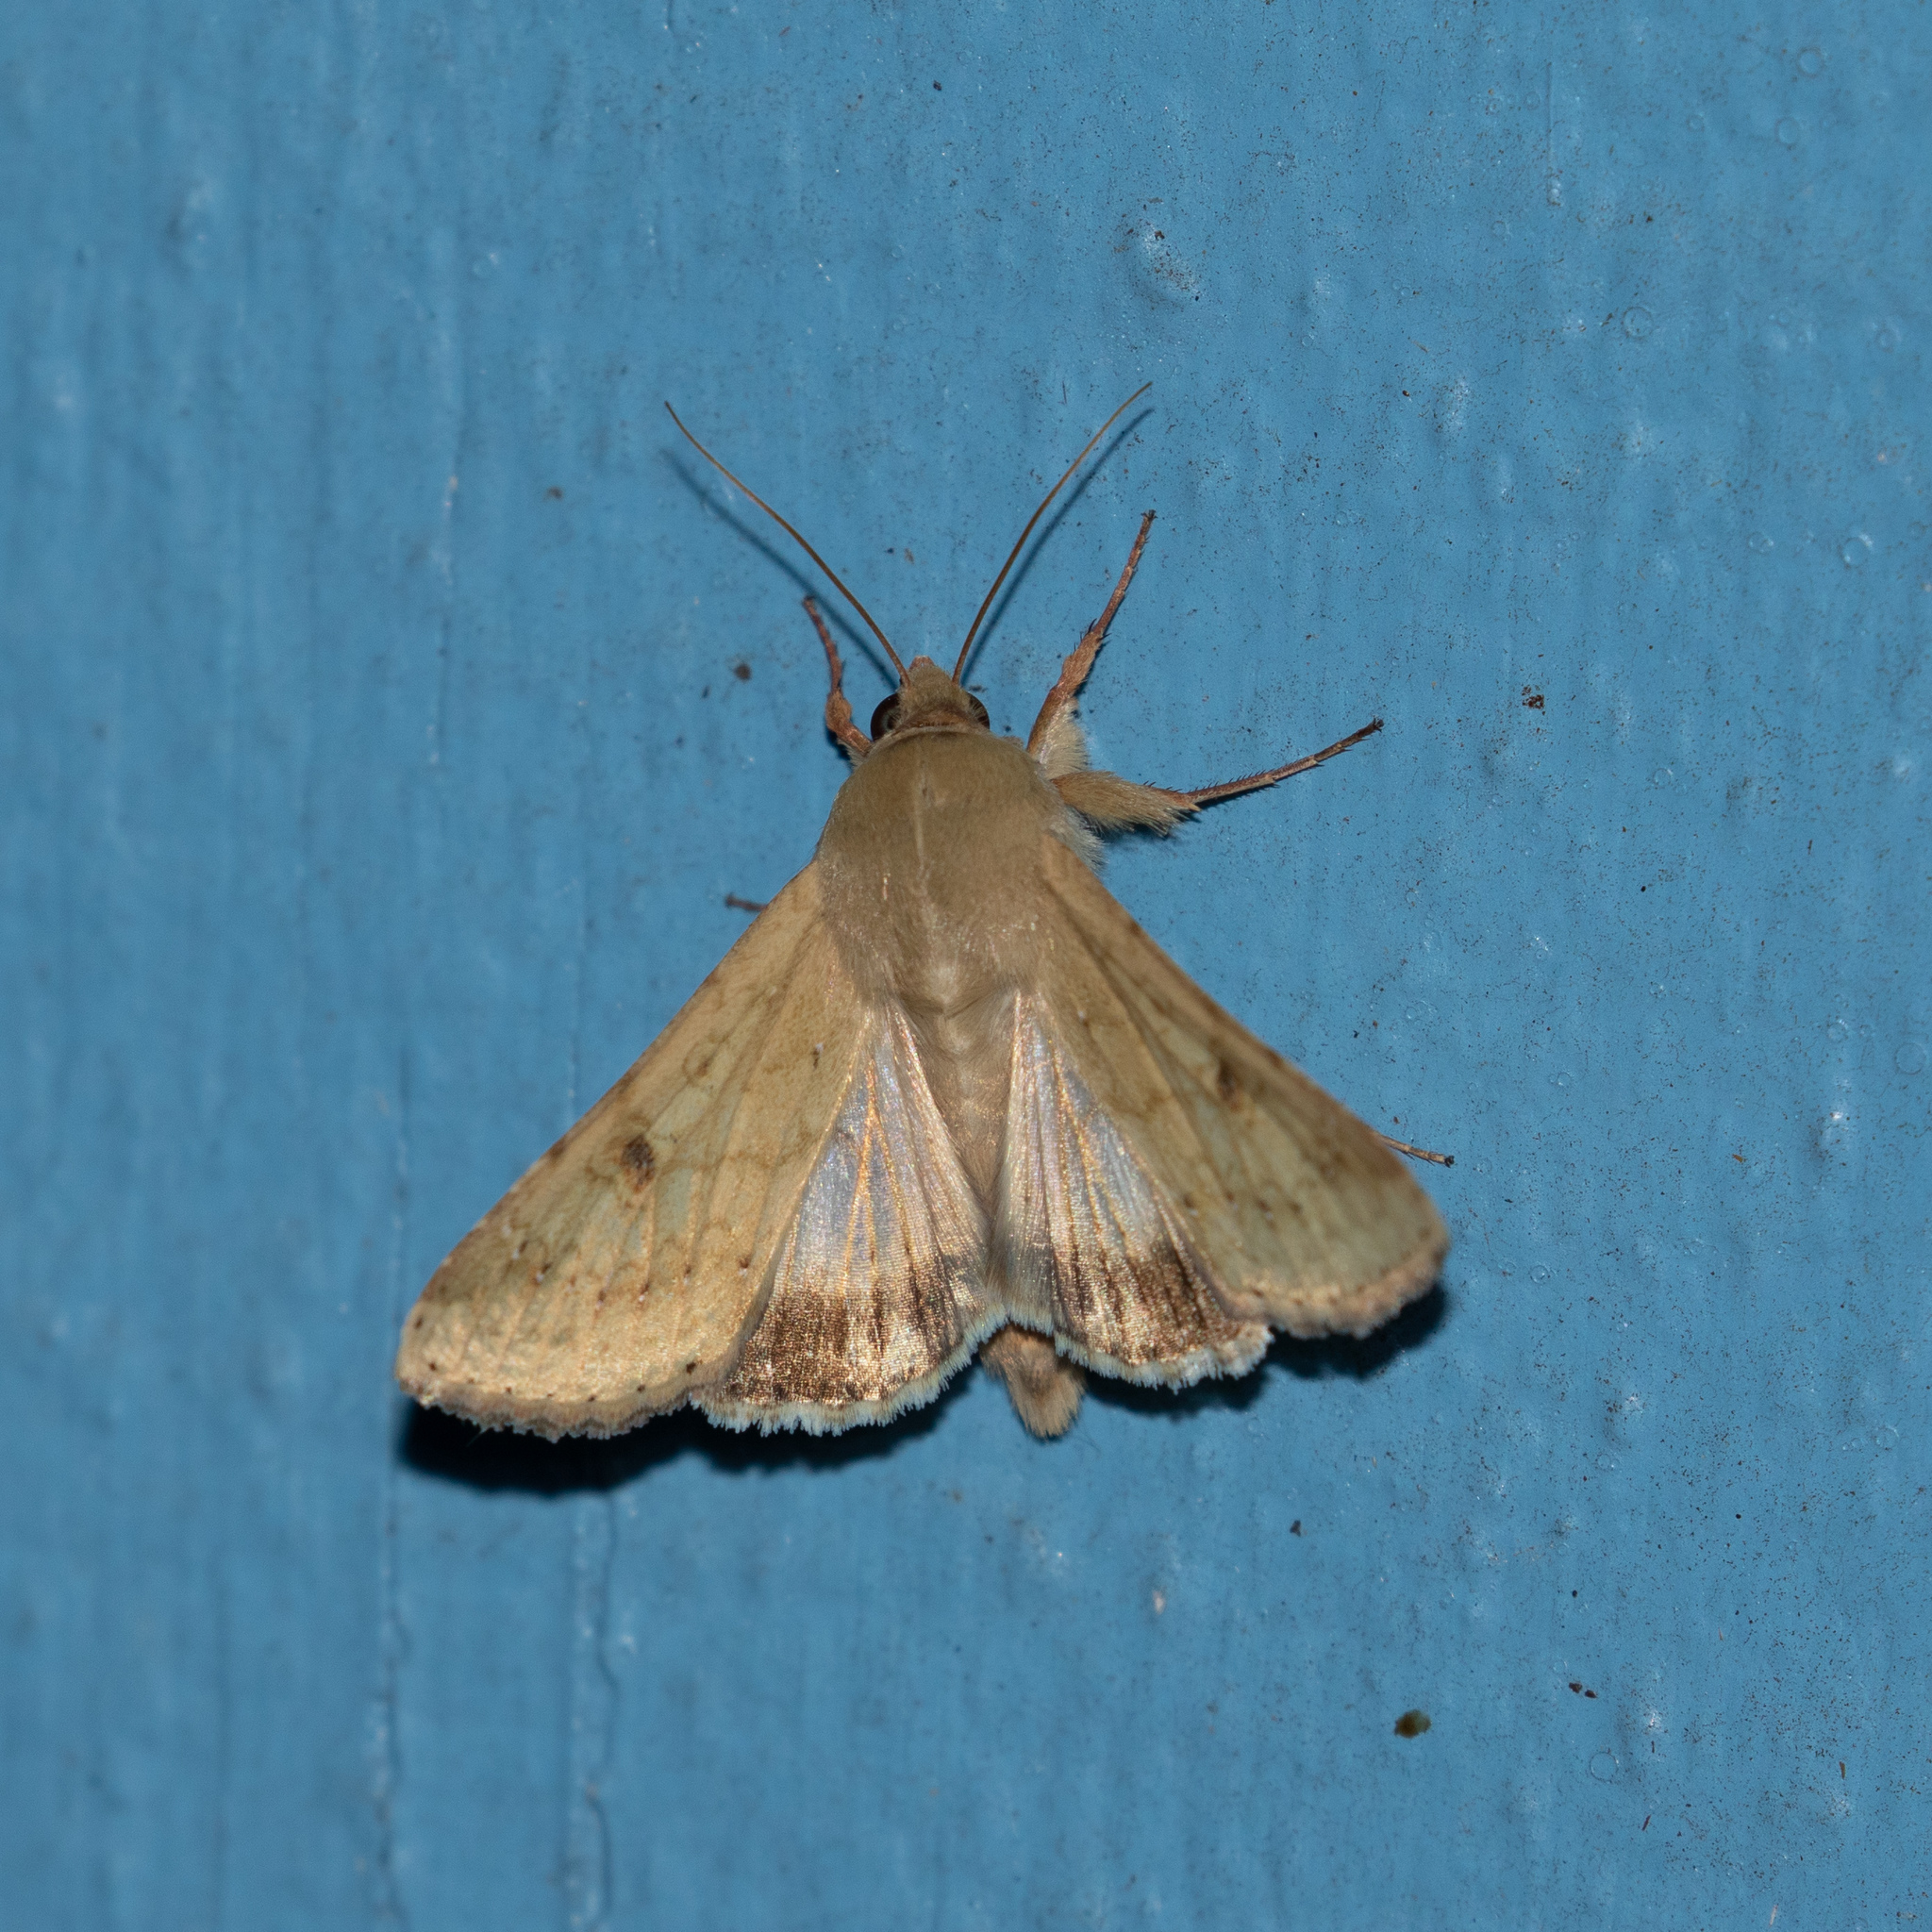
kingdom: Animalia
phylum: Arthropoda
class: Insecta
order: Lepidoptera
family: Noctuidae
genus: Helicoverpa
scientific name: Helicoverpa zea
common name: Bollworm
